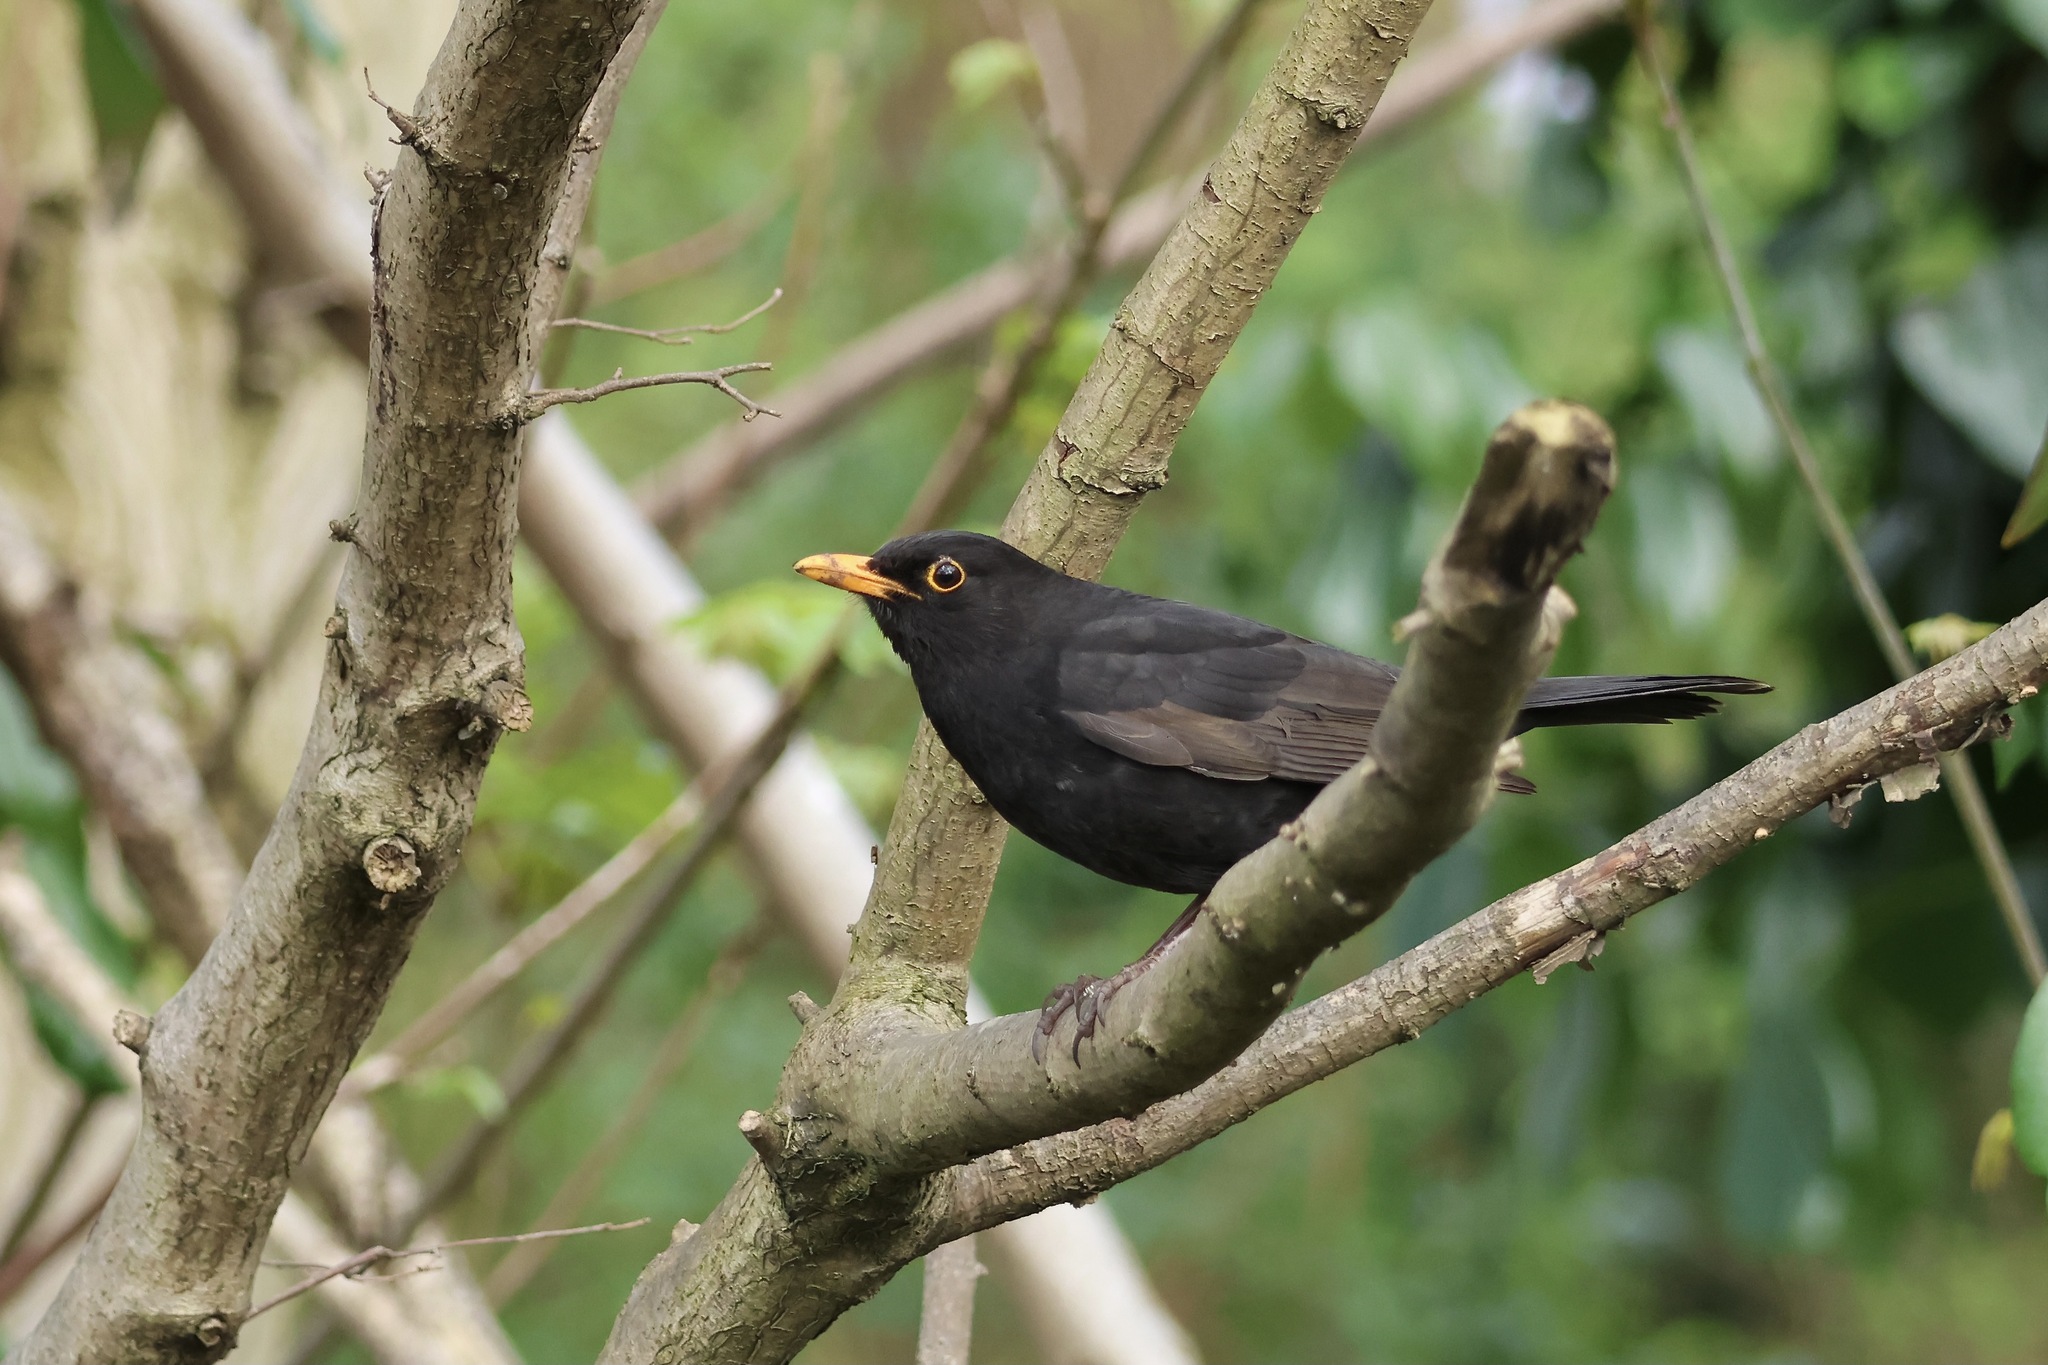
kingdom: Animalia
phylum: Chordata
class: Aves
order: Passeriformes
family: Turdidae
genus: Turdus
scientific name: Turdus merula
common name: Common blackbird
